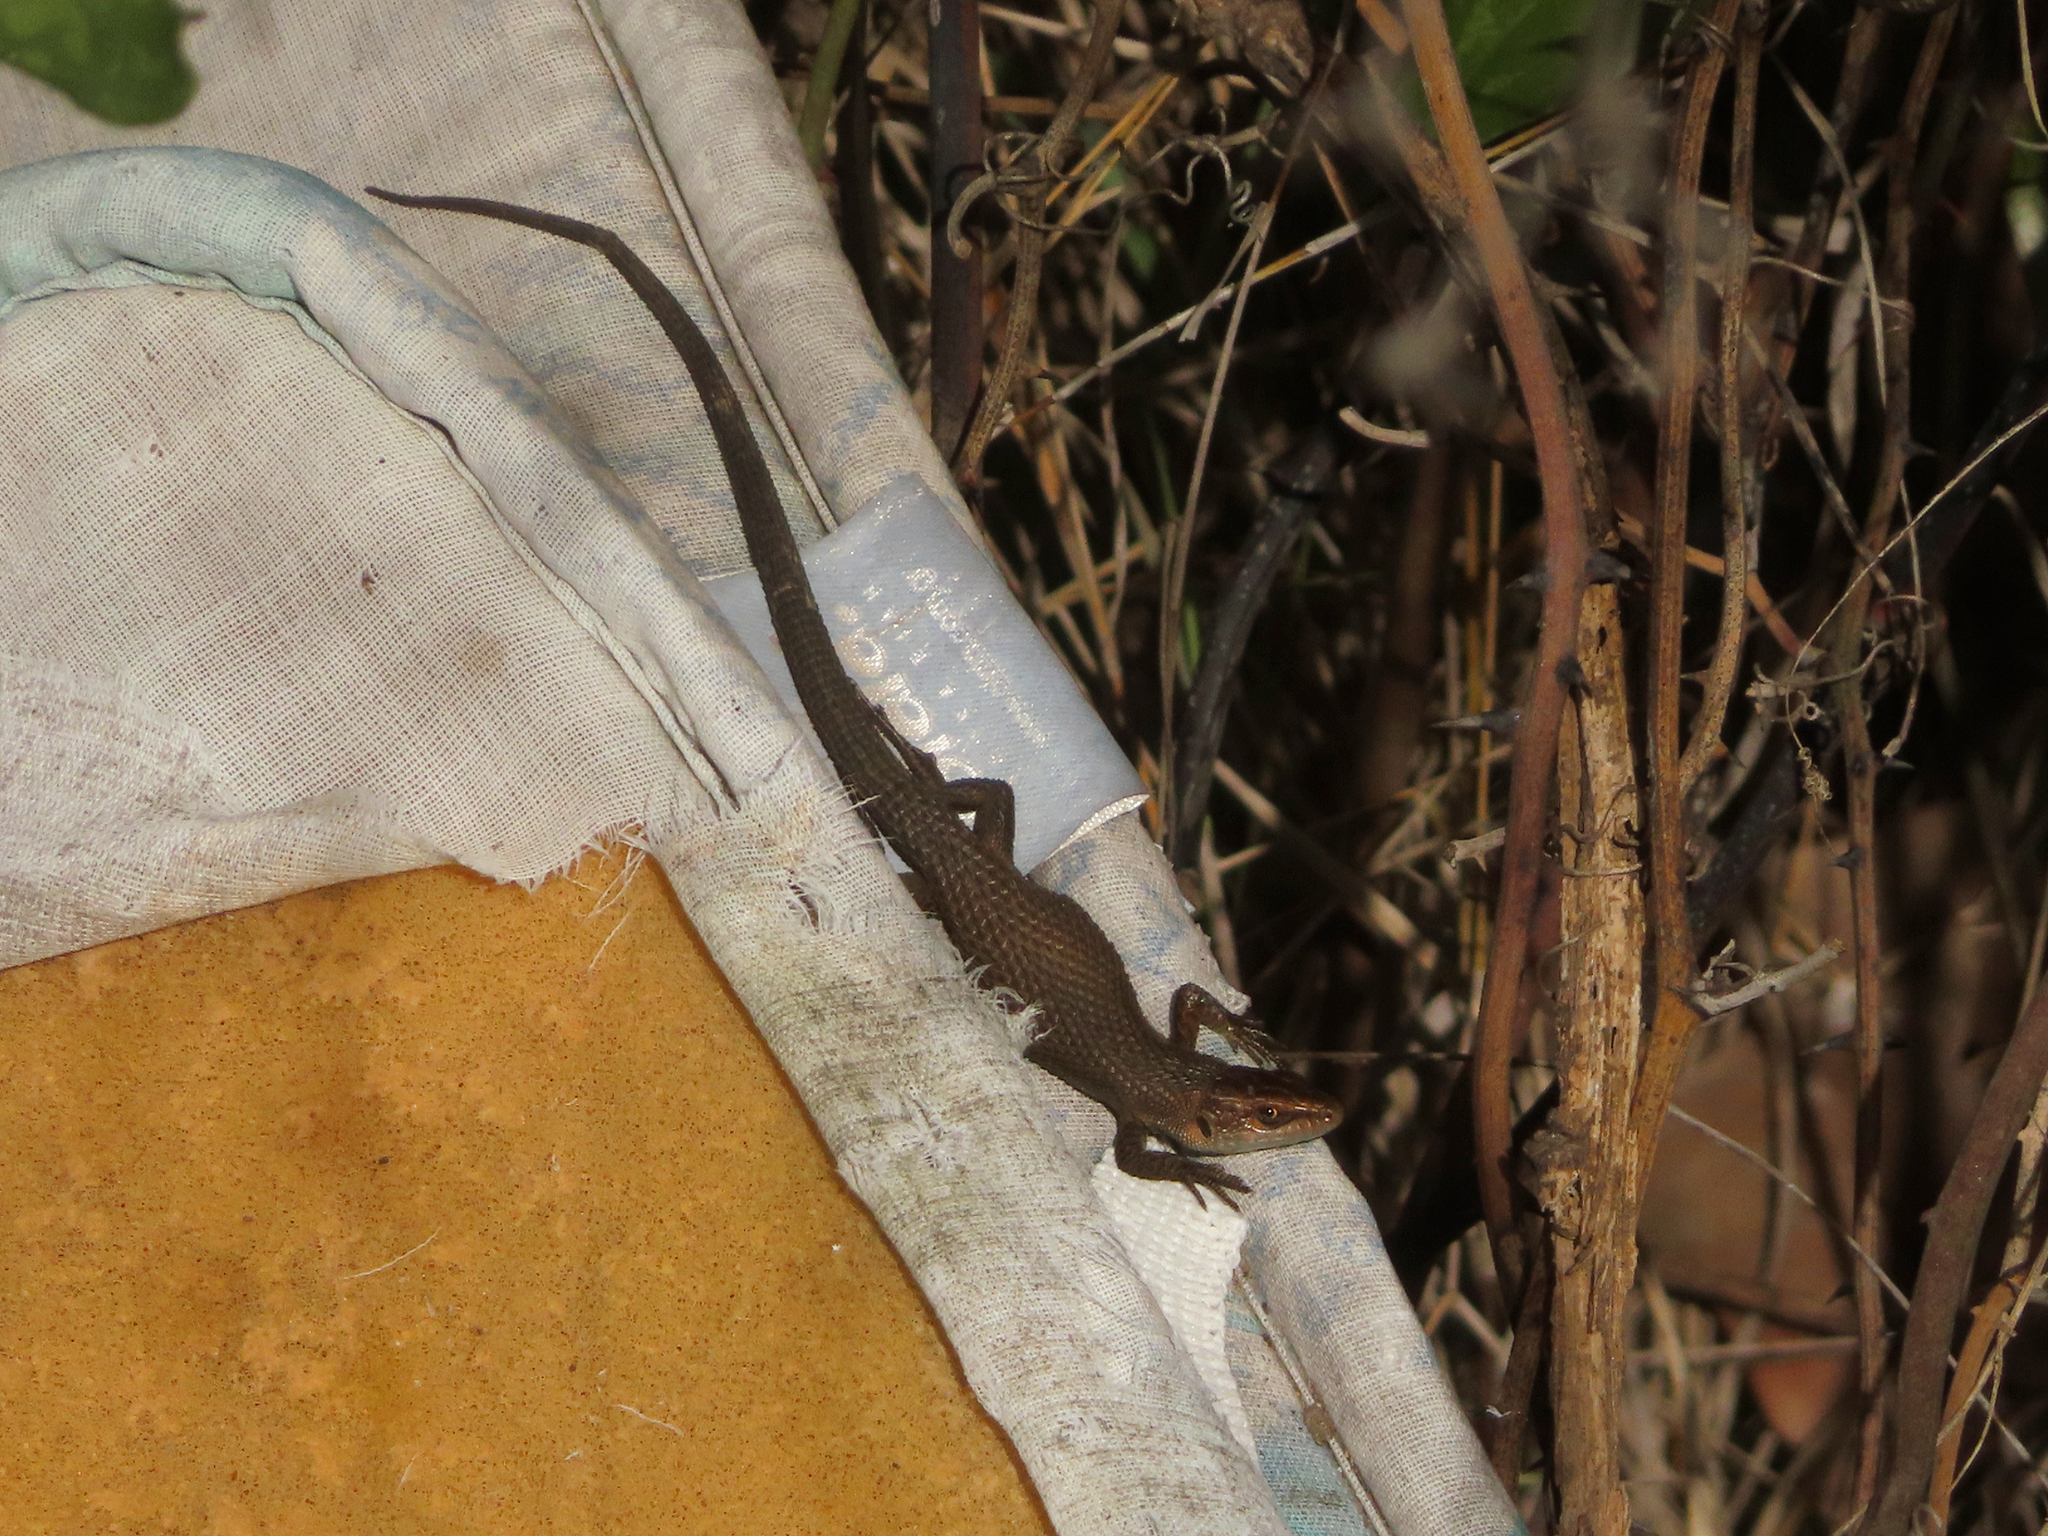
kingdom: Animalia
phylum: Chordata
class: Squamata
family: Lacertidae
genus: Algyroides
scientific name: Algyroides moreoticus
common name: Greek algyroides
